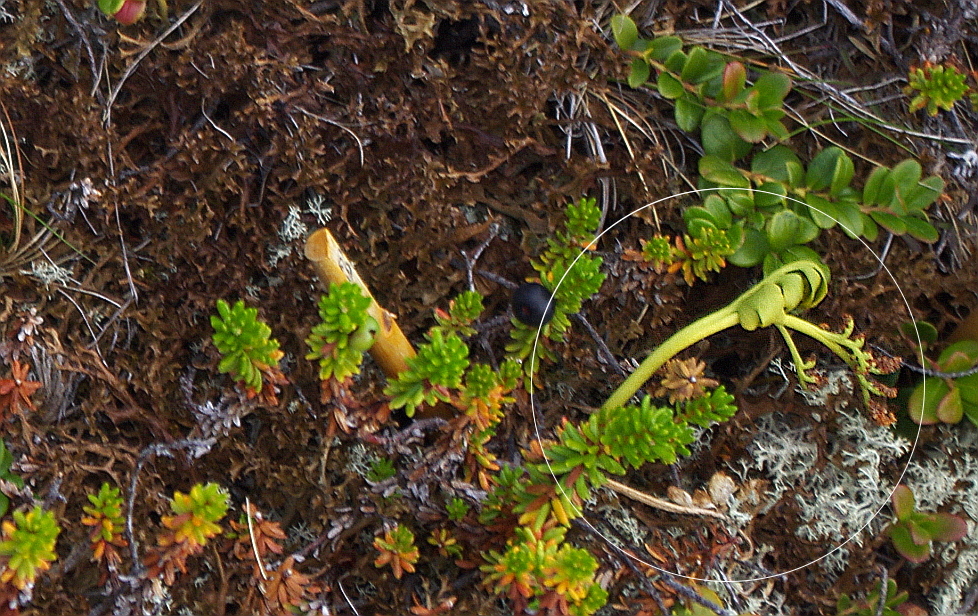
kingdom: Plantae
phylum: Tracheophyta
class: Polypodiopsida
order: Ophioglossales
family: Ophioglossaceae
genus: Botrychium
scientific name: Botrychium boreale
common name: Boreal moonwort
